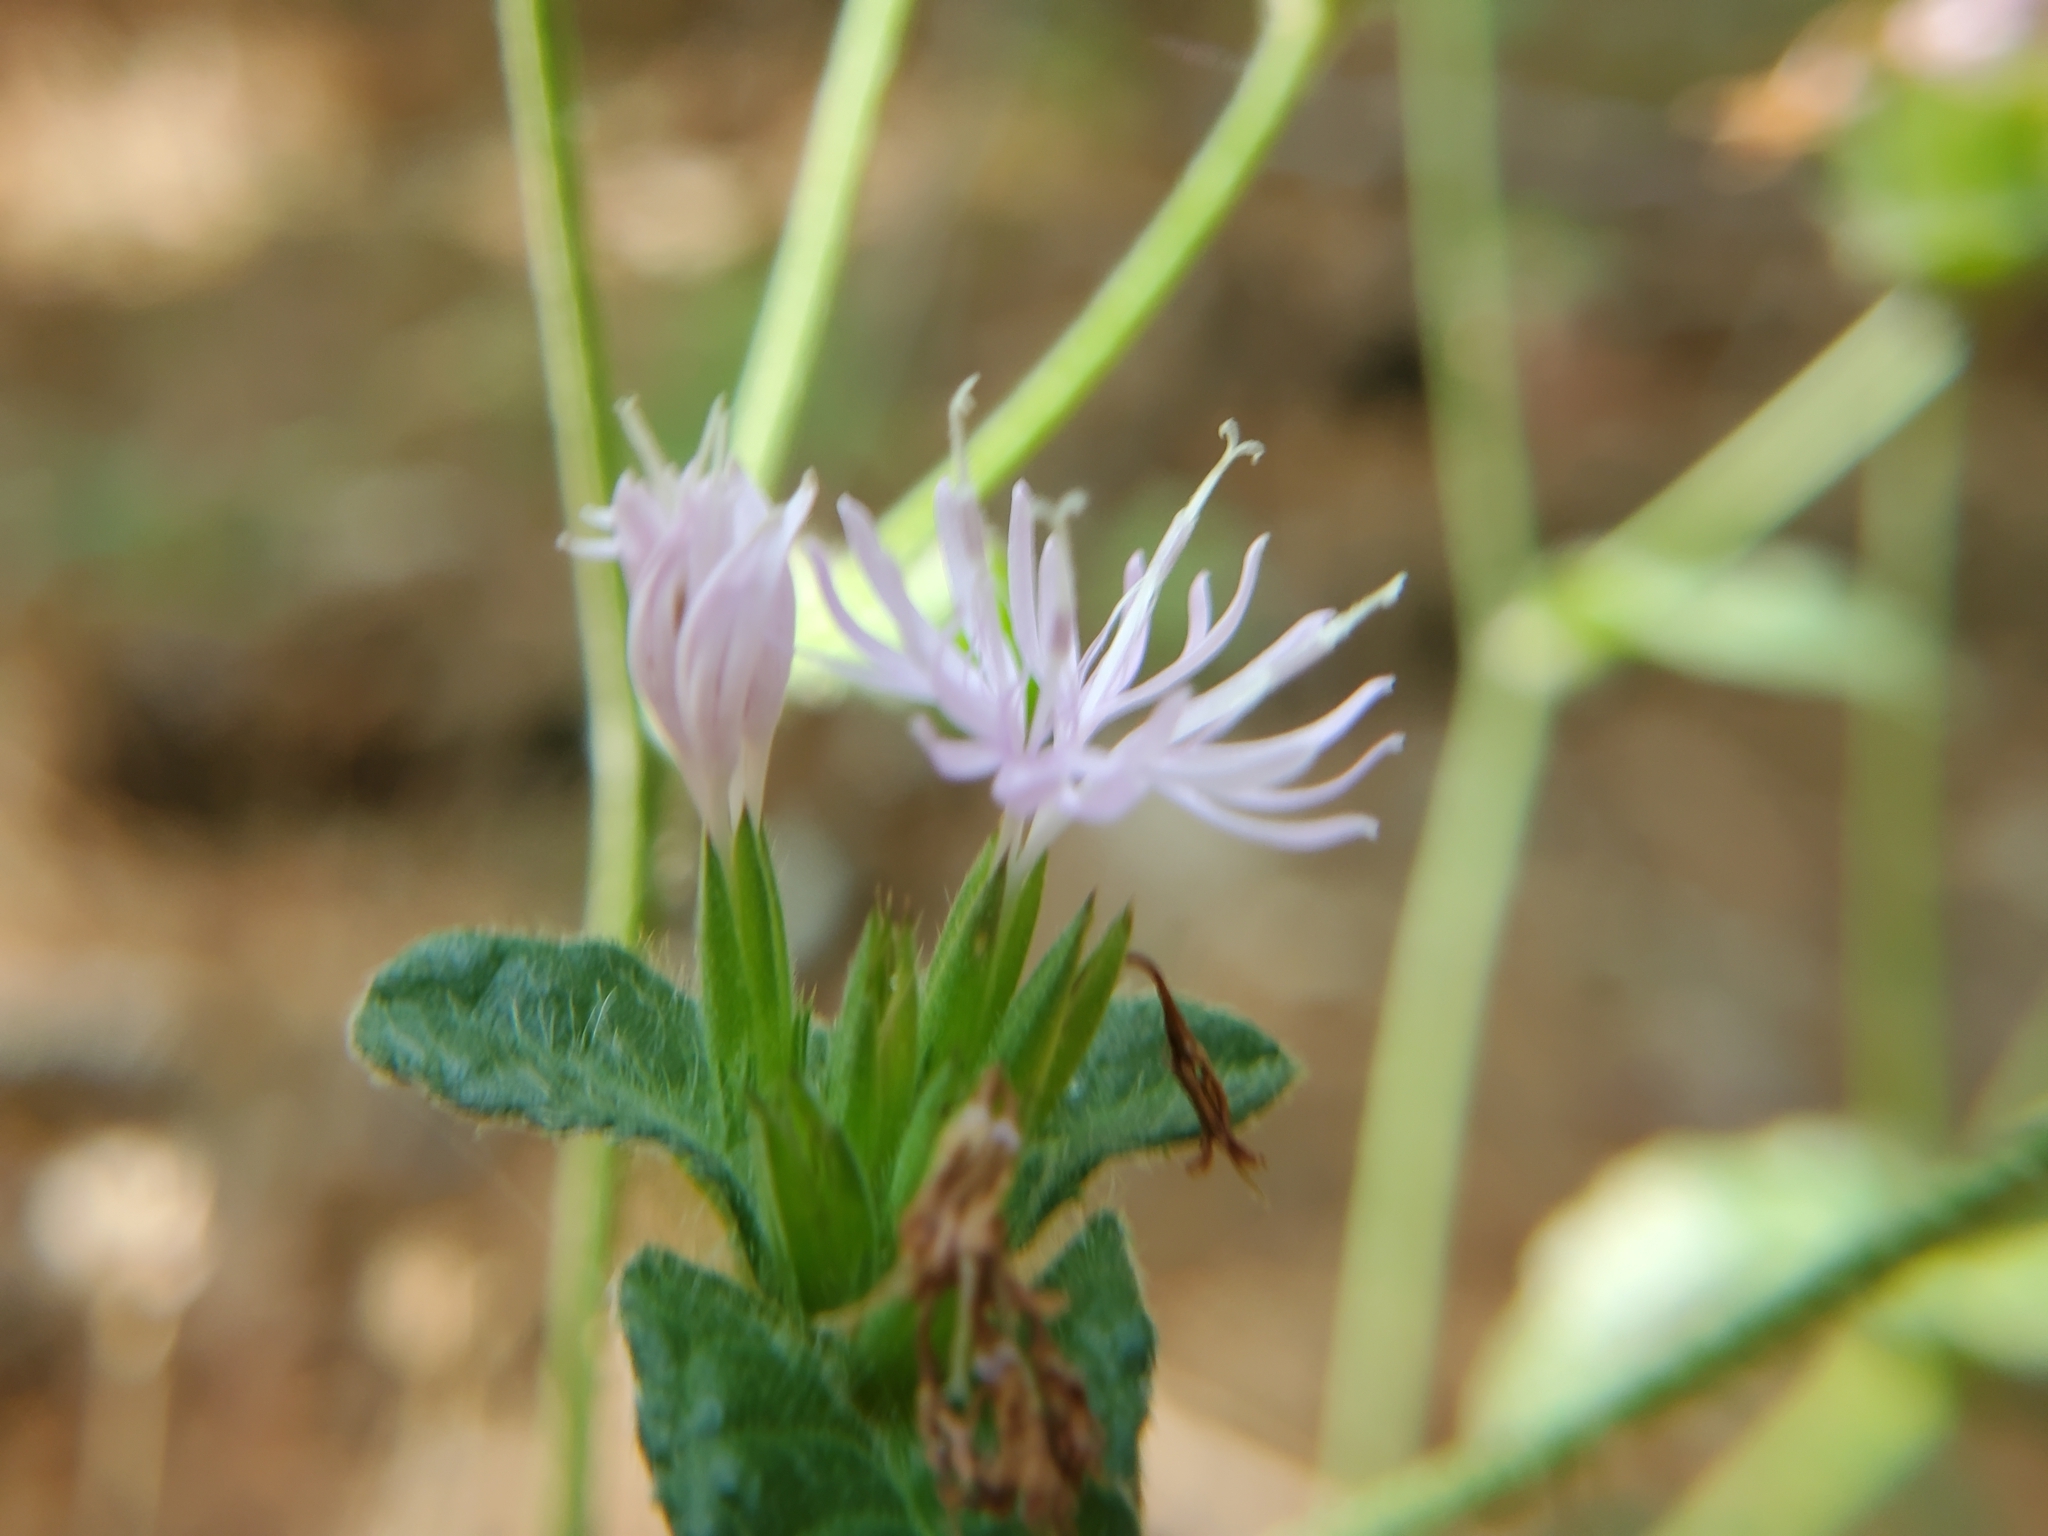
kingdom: Plantae
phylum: Tracheophyta
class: Magnoliopsida
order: Asterales
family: Asteraceae
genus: Elephantopus
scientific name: Elephantopus tomentosus
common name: Tobacco-weed
